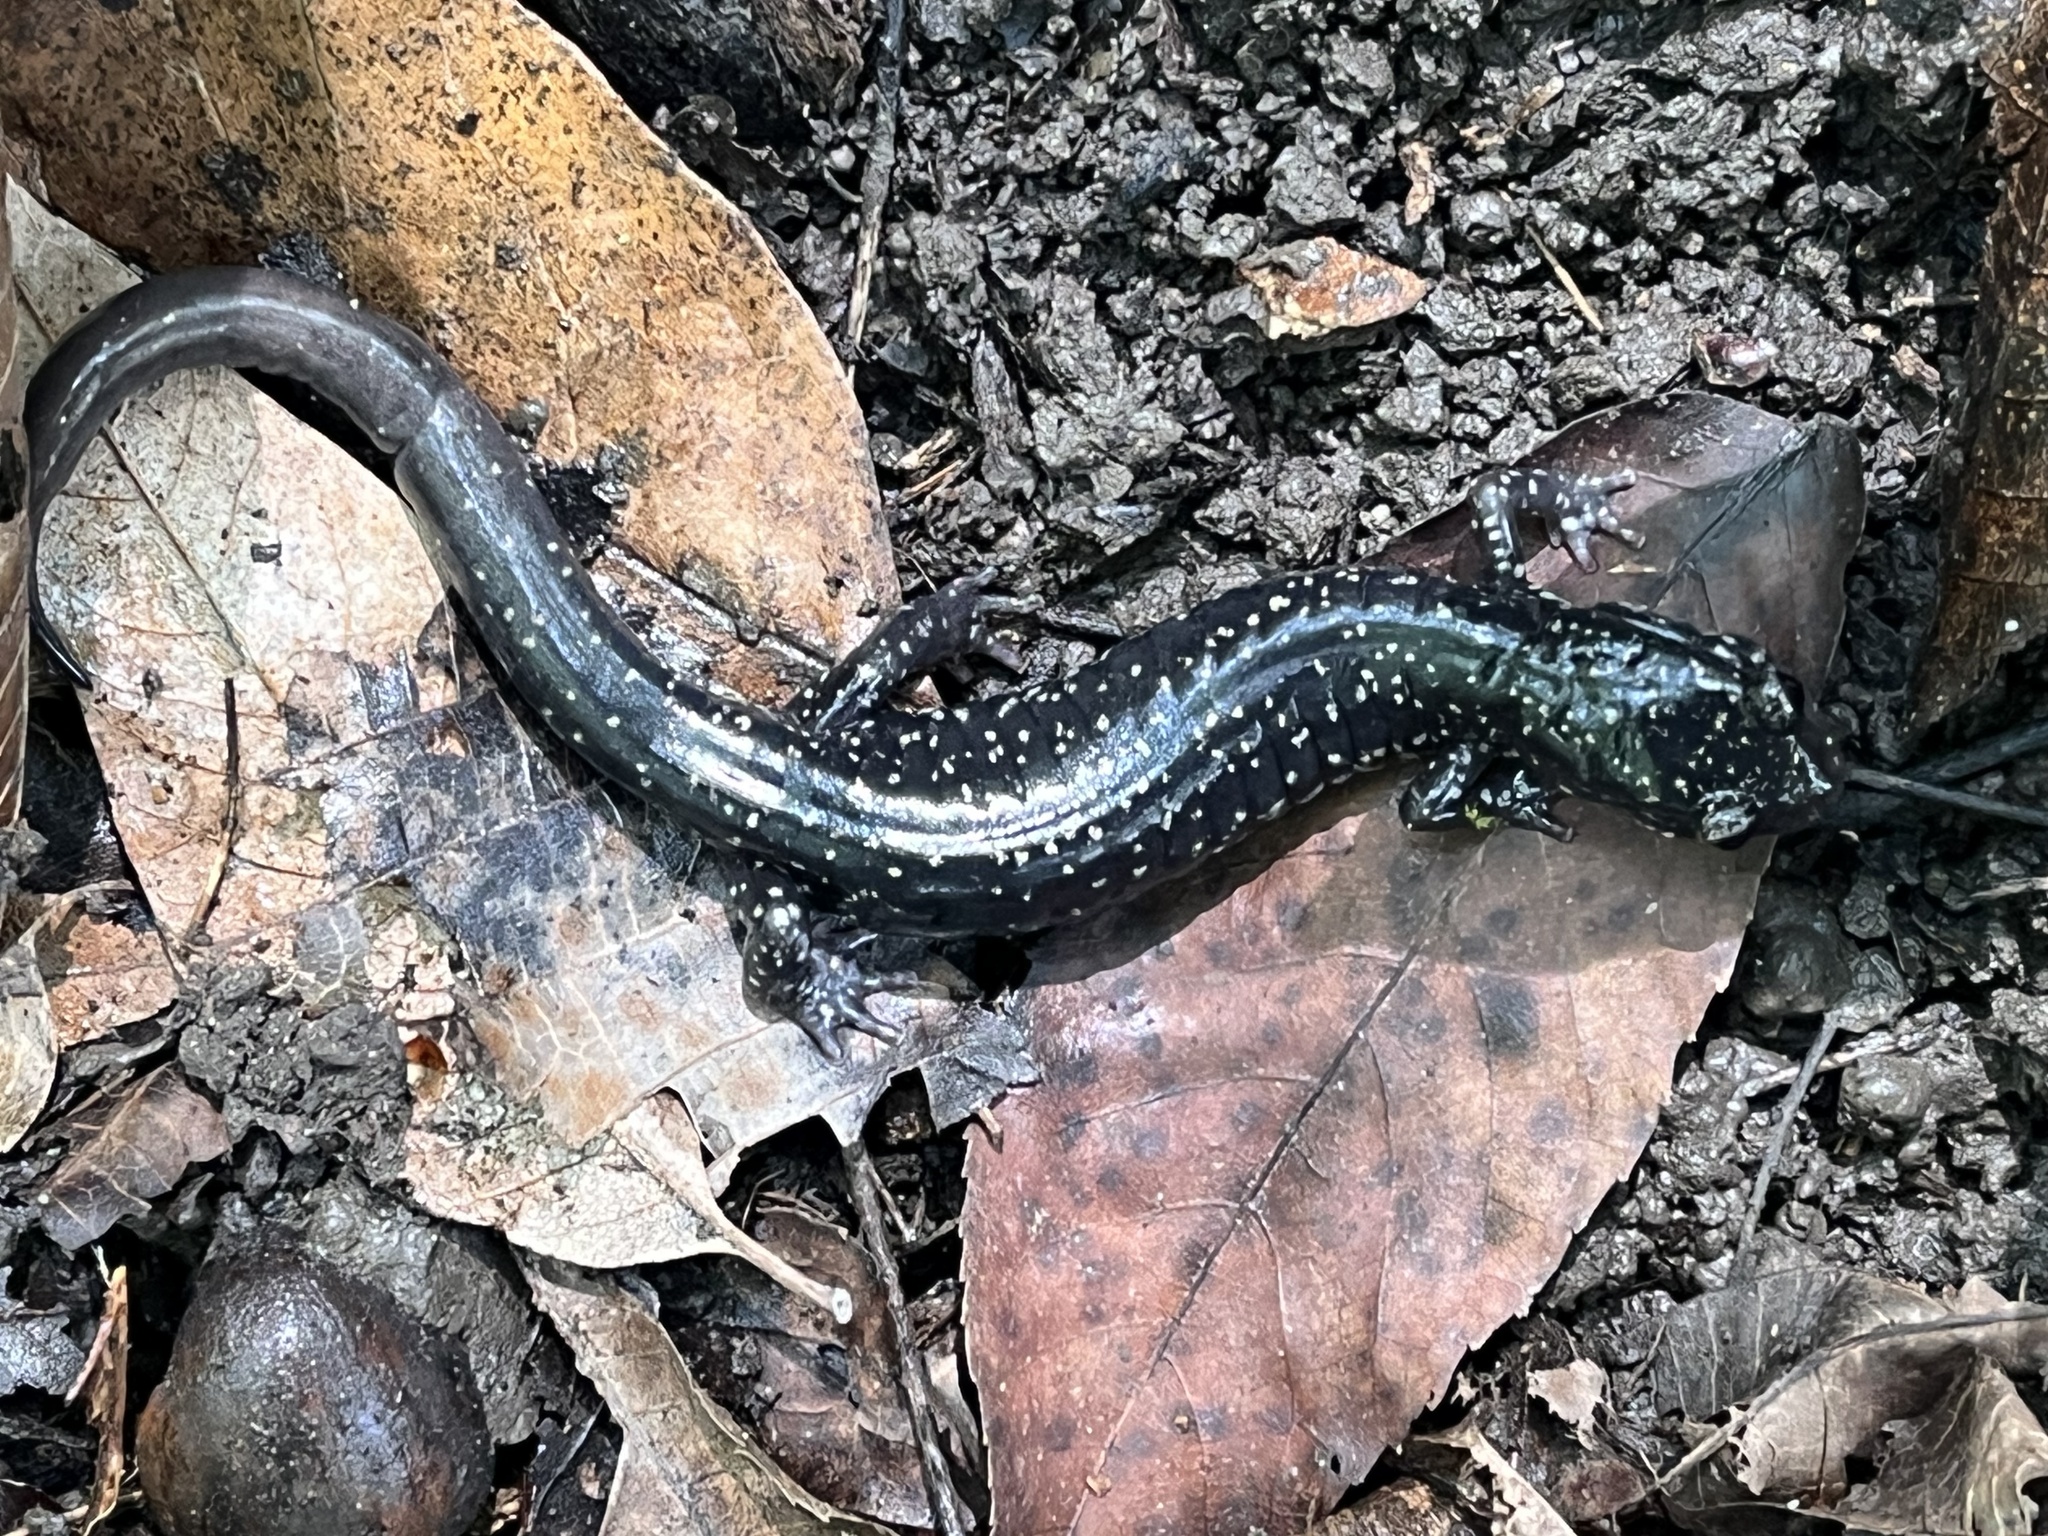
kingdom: Animalia
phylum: Chordata
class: Amphibia
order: Caudata
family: Plethodontidae
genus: Plethodon
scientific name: Plethodon glutinosus
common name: Northern slimy salamander
